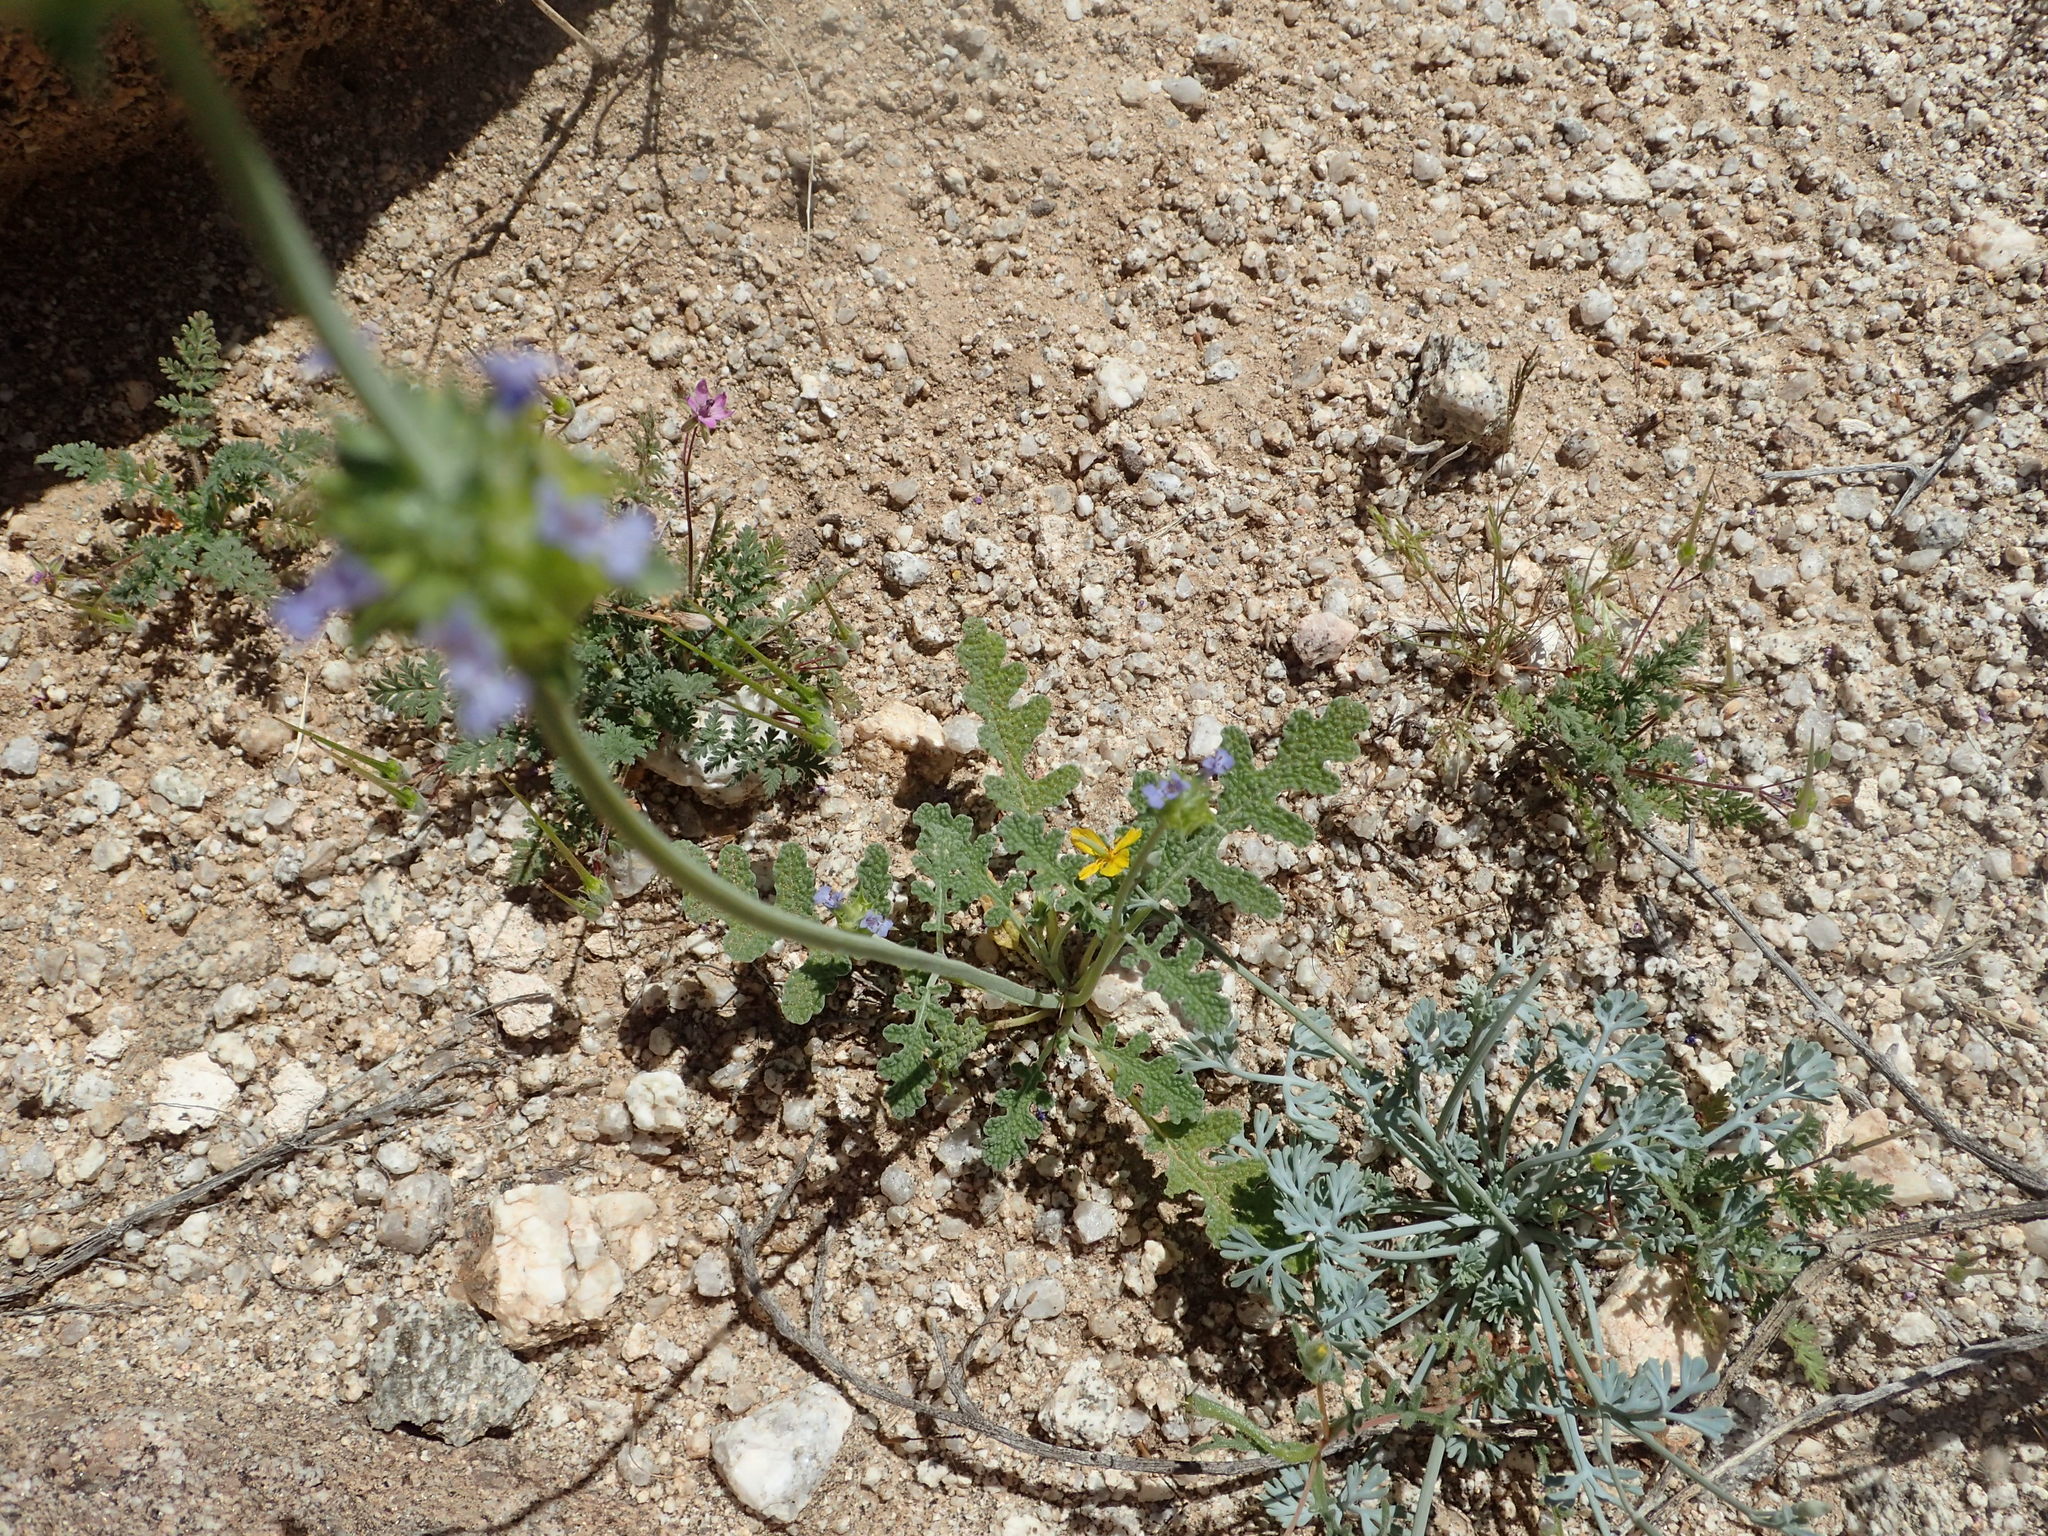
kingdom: Plantae
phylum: Tracheophyta
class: Magnoliopsida
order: Lamiales
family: Lamiaceae
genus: Salvia
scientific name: Salvia columbariae
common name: Chia
